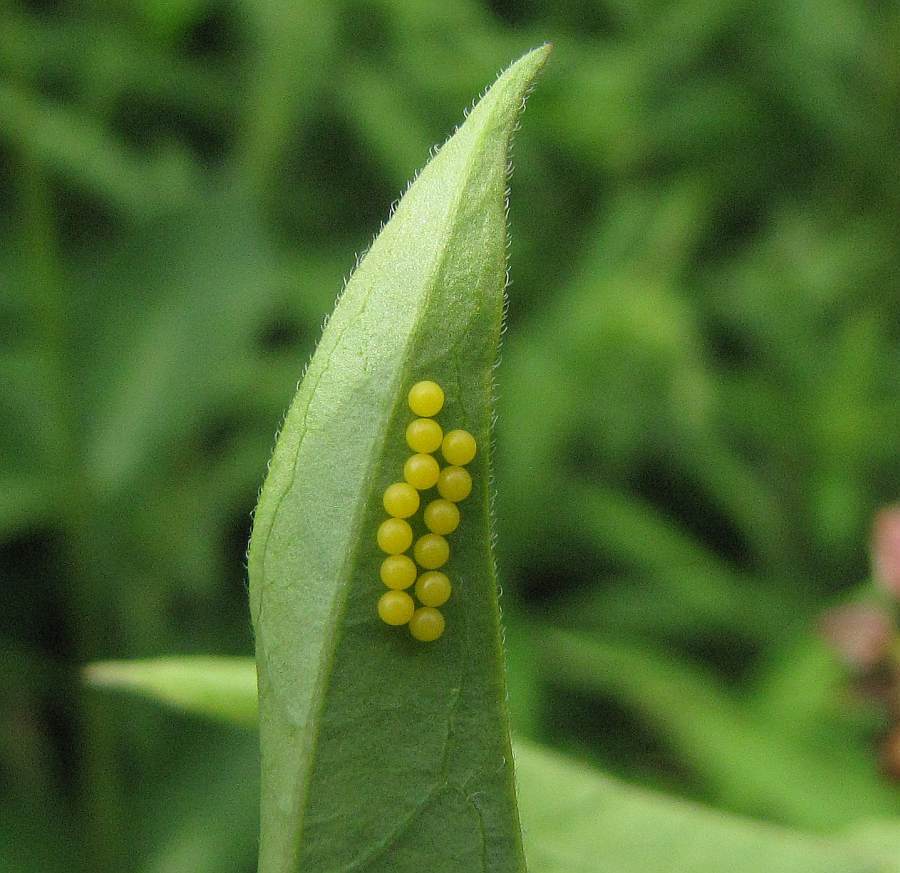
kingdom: Animalia
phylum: Arthropoda
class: Insecta
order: Lepidoptera
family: Erebidae
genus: Ctenucha
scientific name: Ctenucha virginica
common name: Virginia ctenucha moth
